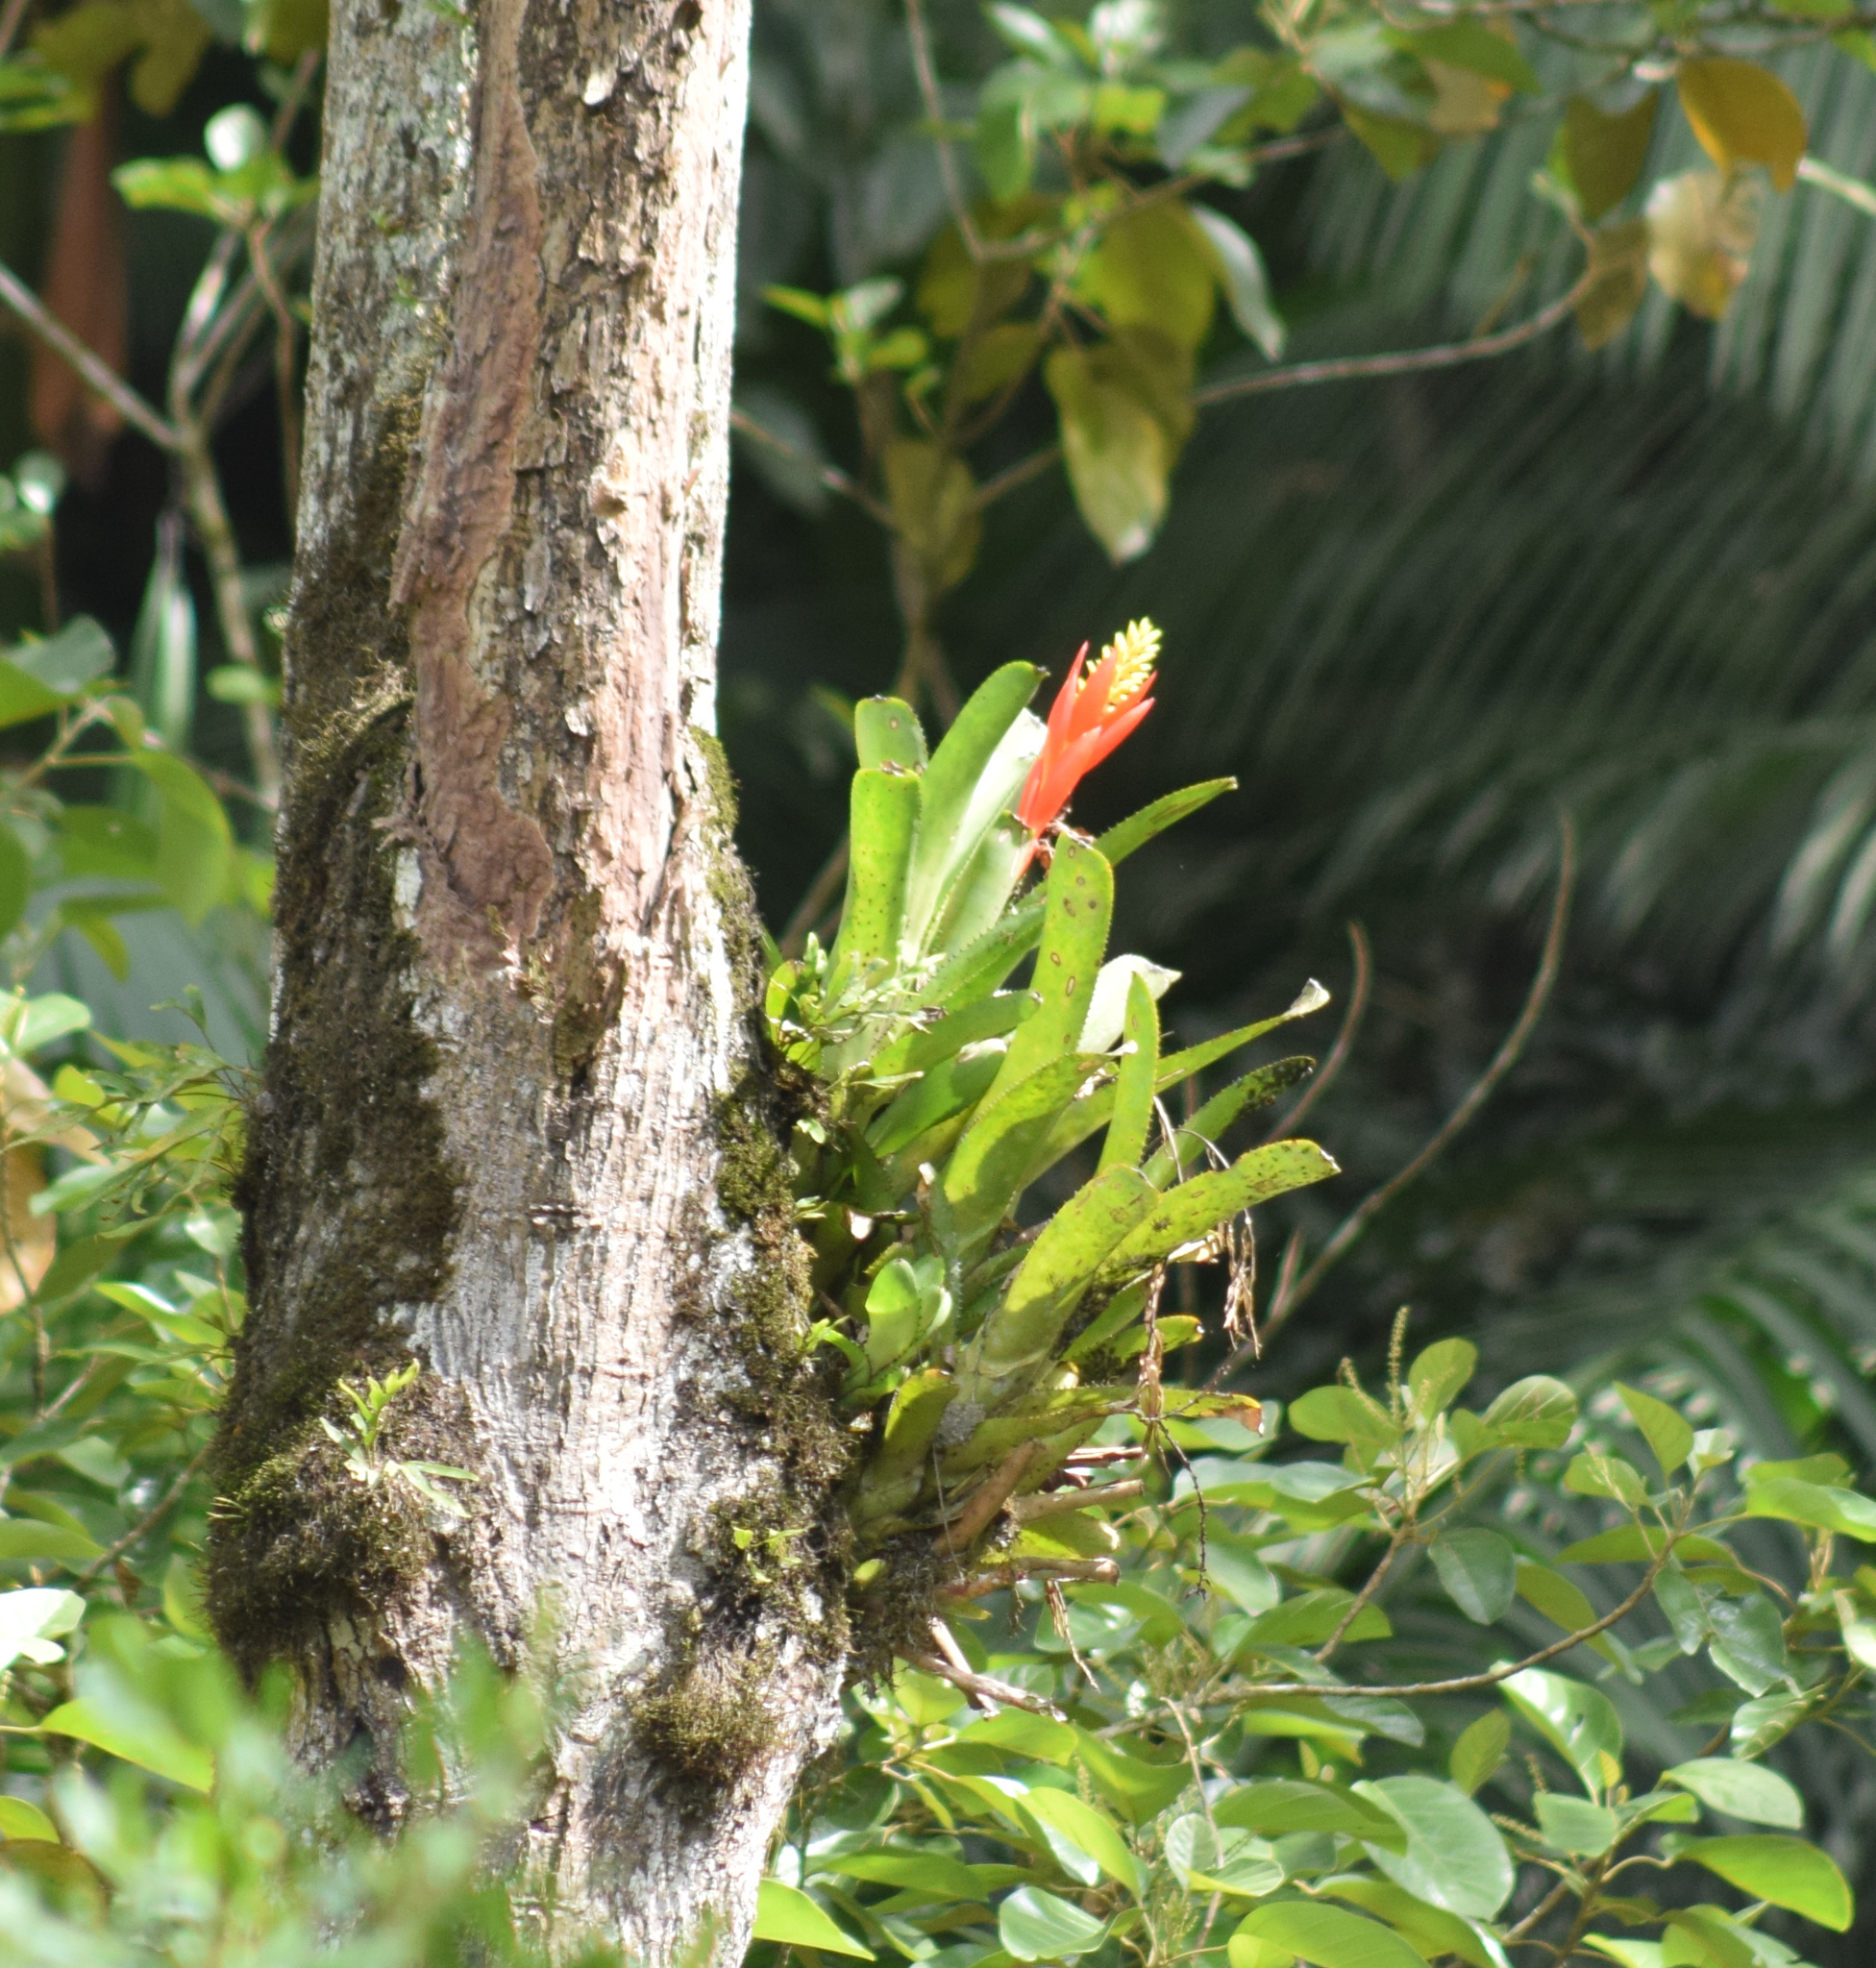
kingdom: Plantae
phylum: Tracheophyta
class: Liliopsida
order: Poales
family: Bromeliaceae
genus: Aechmea
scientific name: Aechmea nudicaulis
